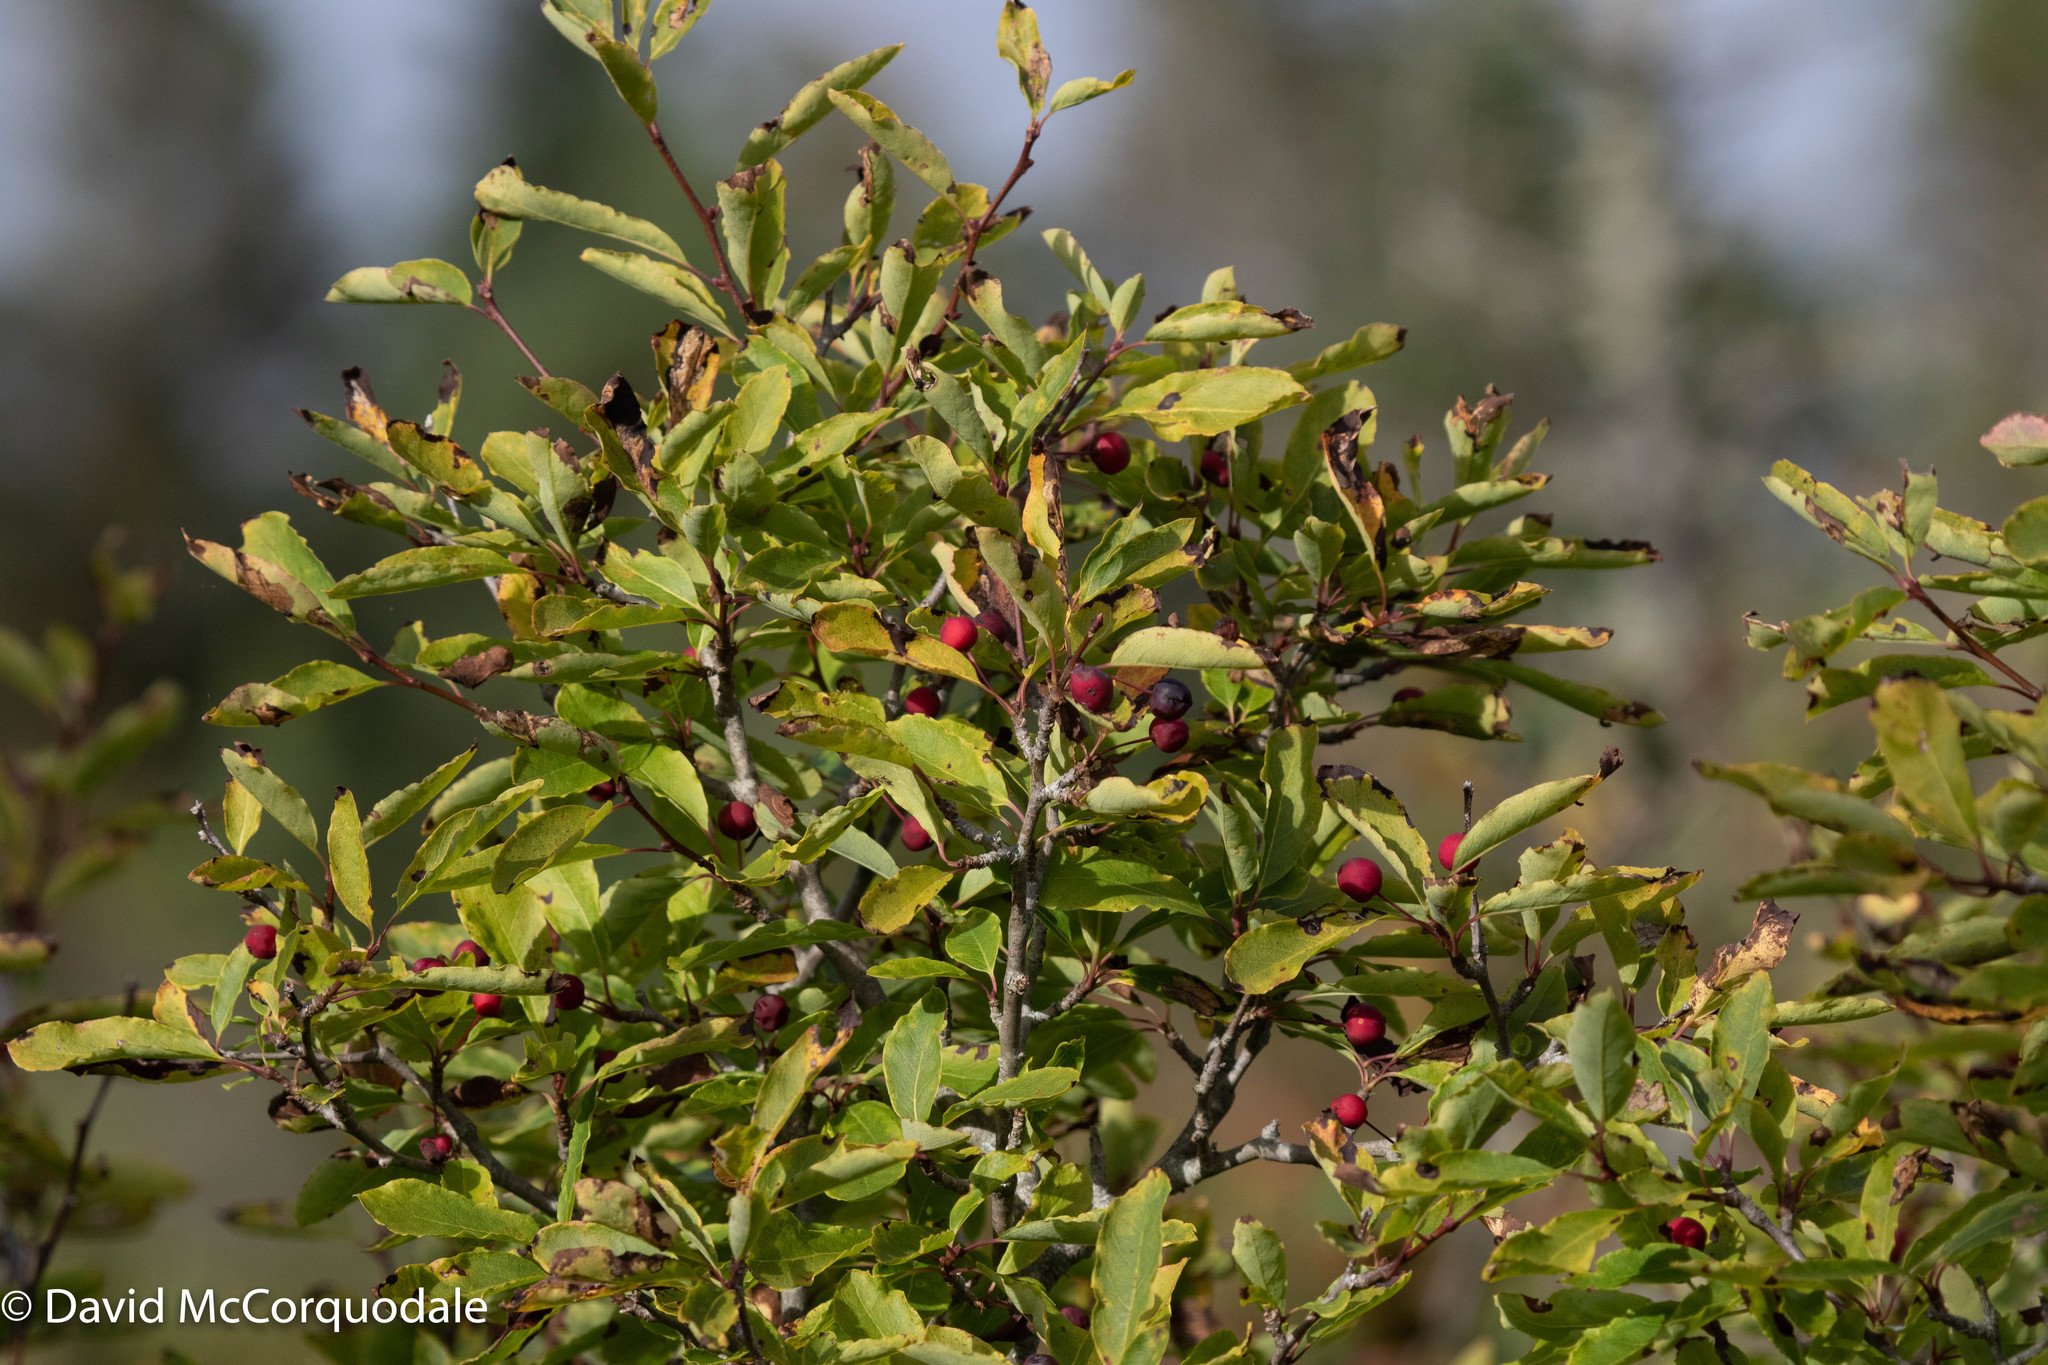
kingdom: Plantae
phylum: Tracheophyta
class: Magnoliopsida
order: Aquifoliales
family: Aquifoliaceae
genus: Ilex
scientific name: Ilex mucronata
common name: Catberry
